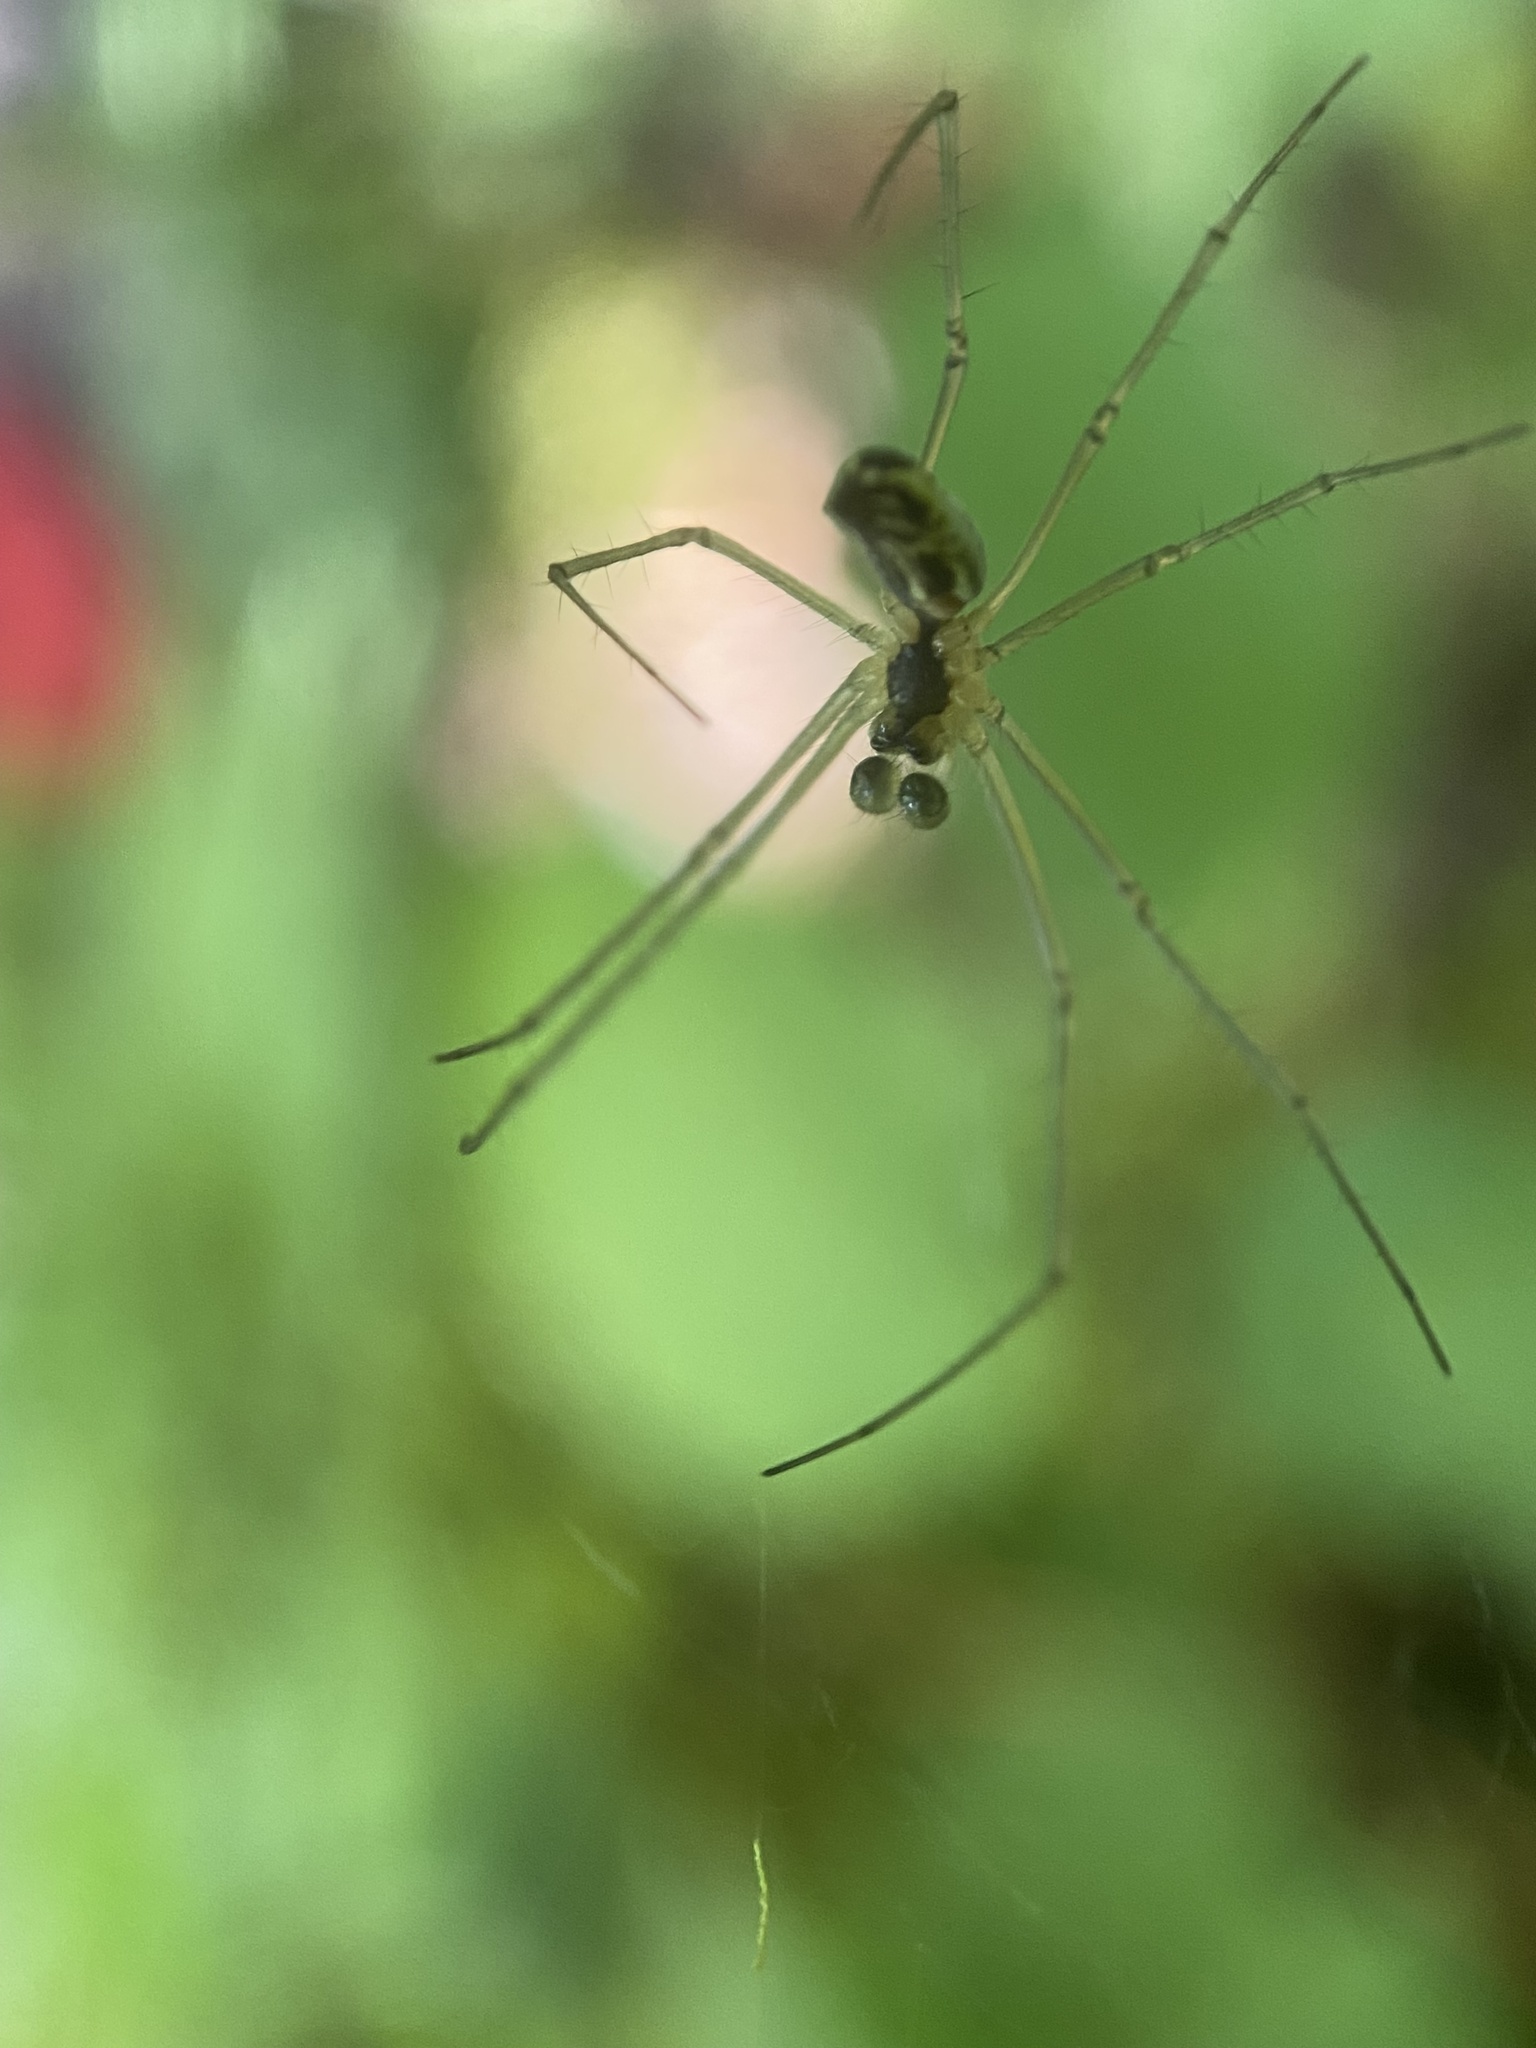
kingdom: Animalia
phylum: Arthropoda
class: Arachnida
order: Araneae
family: Linyphiidae
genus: Neriene
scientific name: Neriene litigiosa
